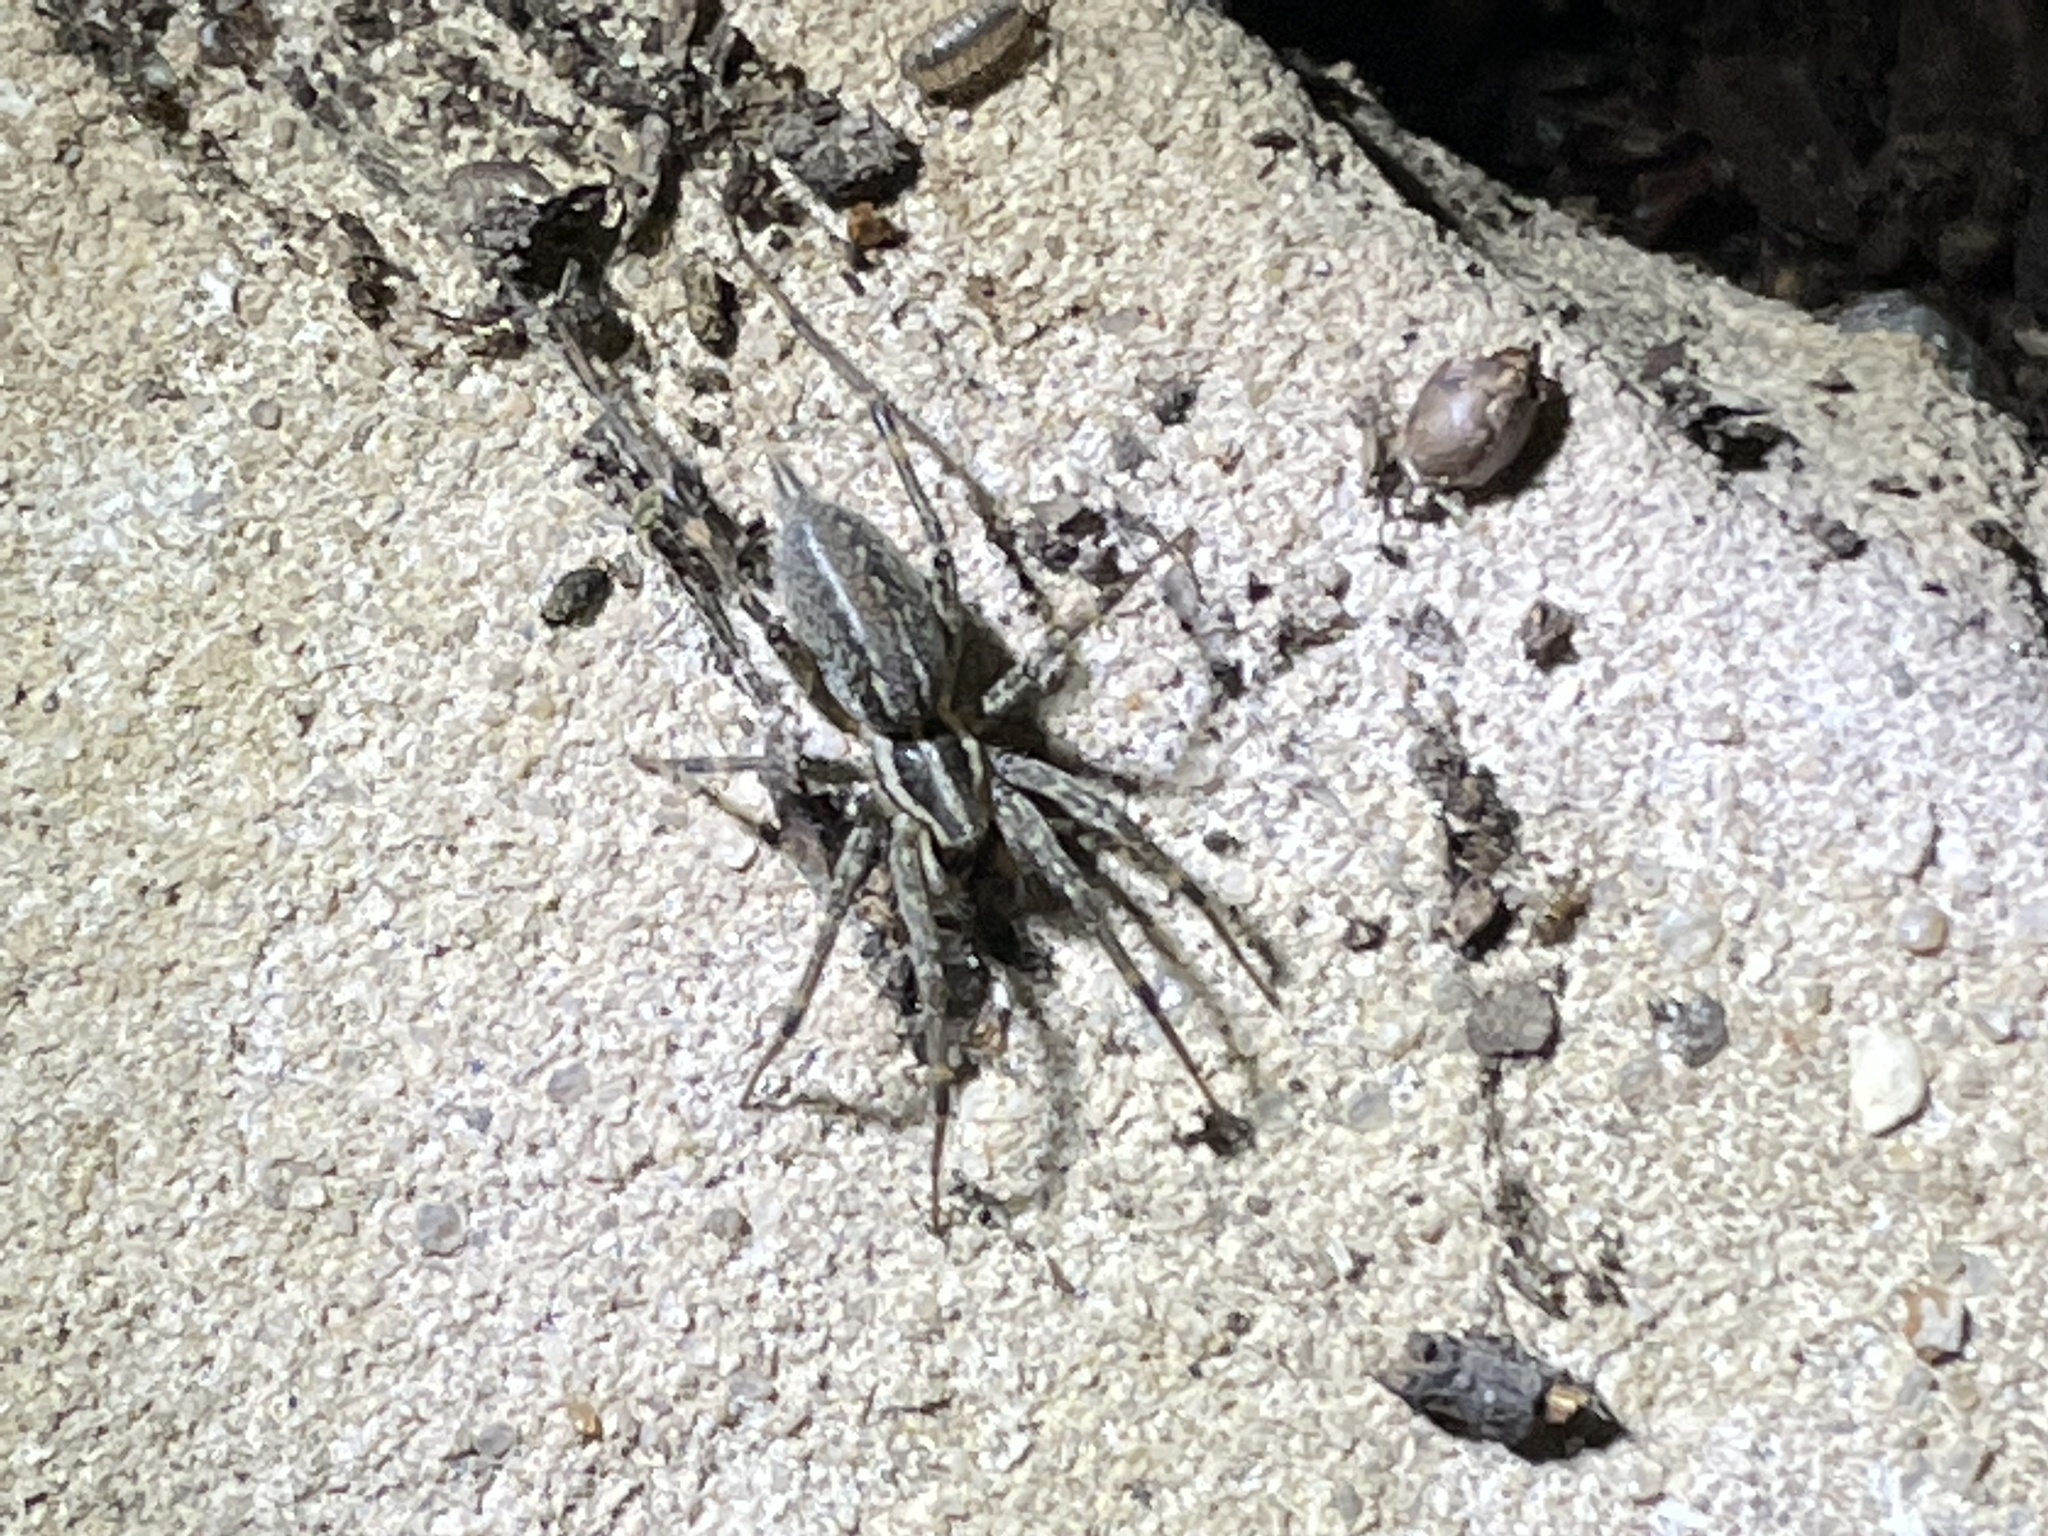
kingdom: Animalia
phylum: Arthropoda
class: Arachnida
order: Araneae
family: Agelenidae
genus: Agelenopsis
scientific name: Agelenopsis
